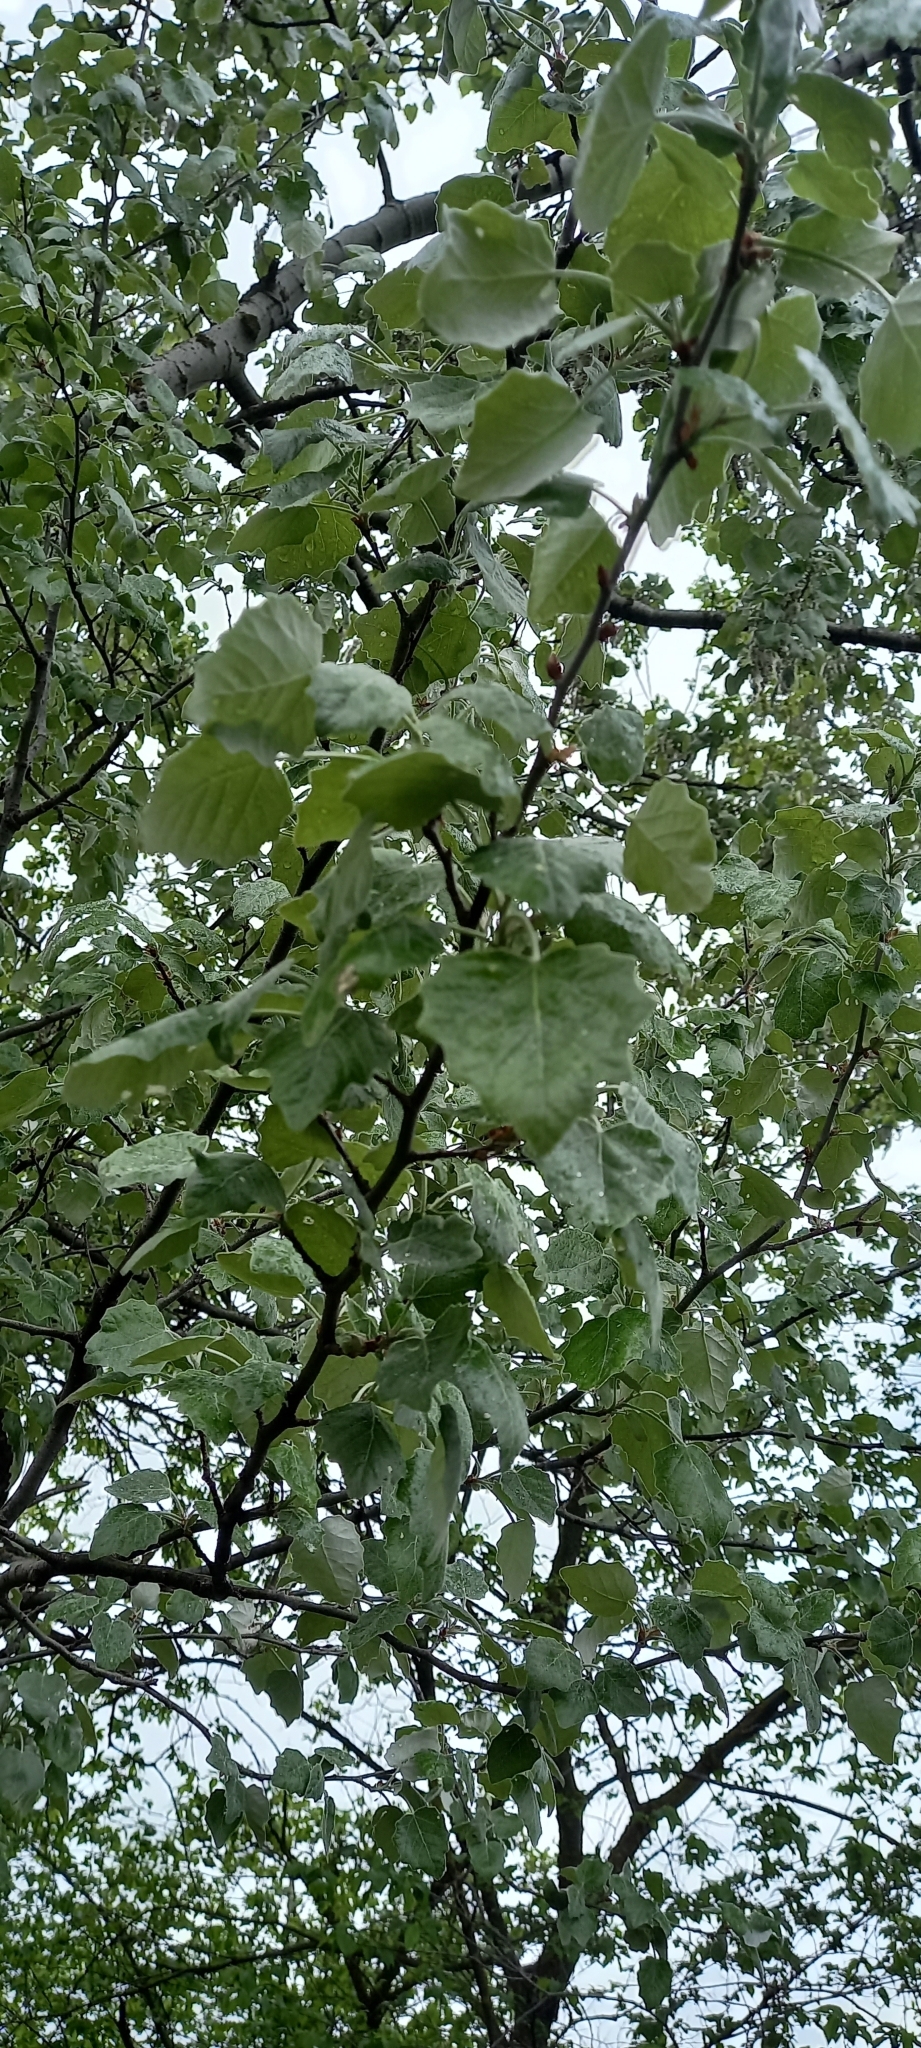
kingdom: Plantae
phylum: Tracheophyta
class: Magnoliopsida
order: Malpighiales
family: Salicaceae
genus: Populus
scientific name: Populus alba
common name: White poplar
